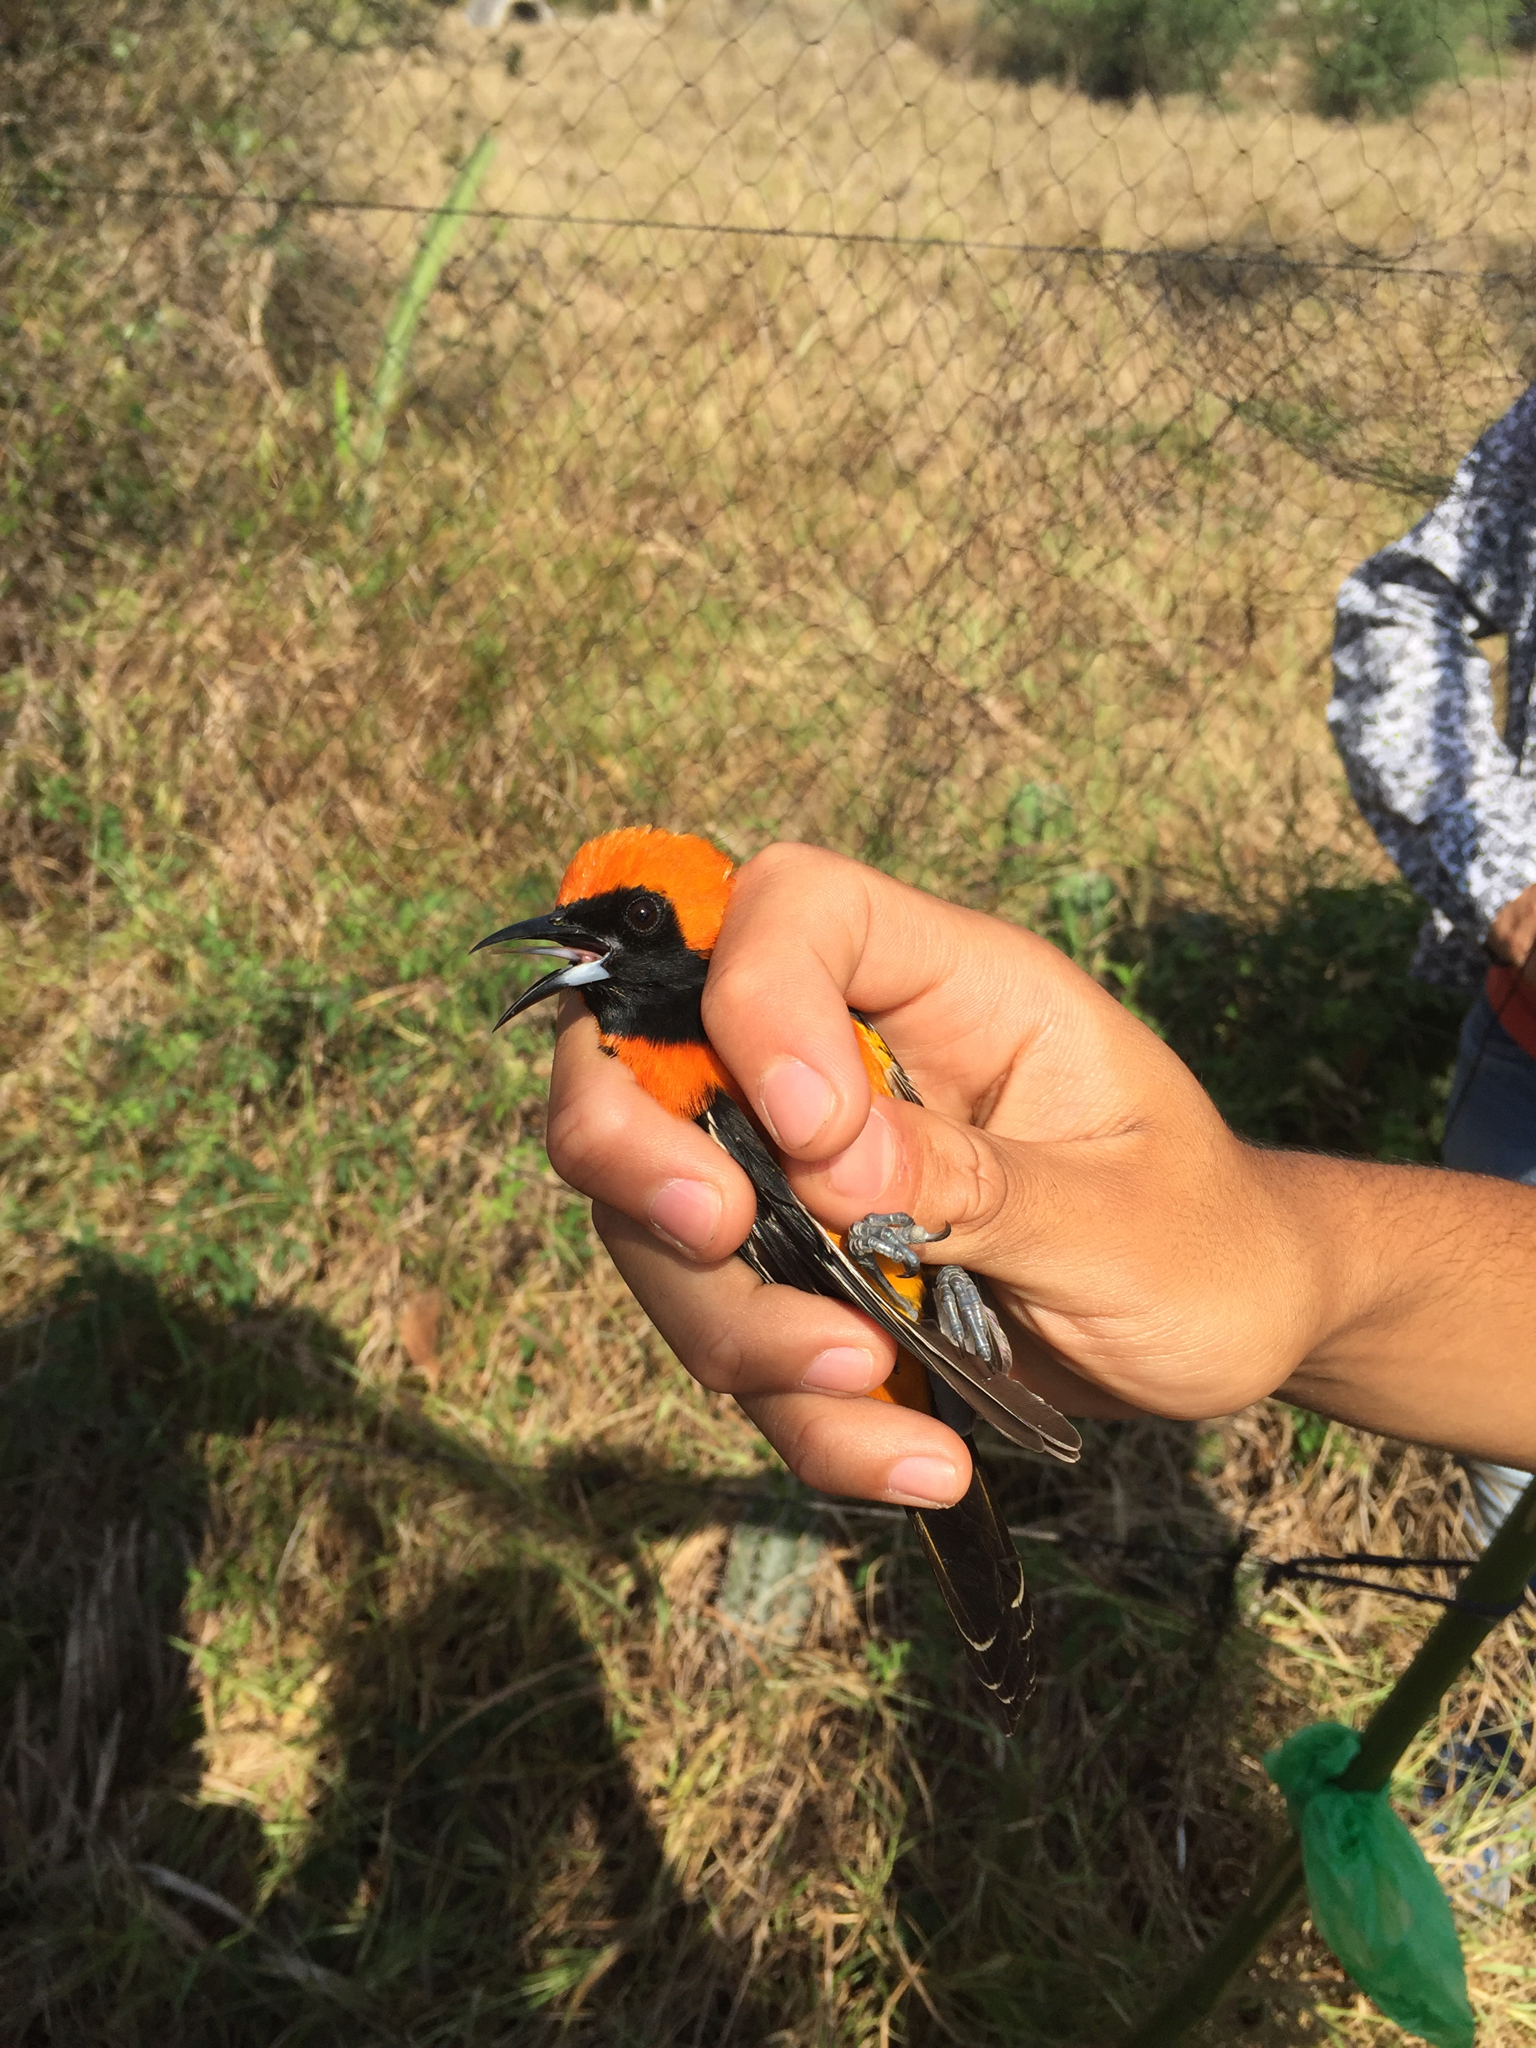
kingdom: Animalia
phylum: Chordata
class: Aves
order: Passeriformes
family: Icteridae
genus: Icterus
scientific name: Icterus cucullatus
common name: Hooded oriole
